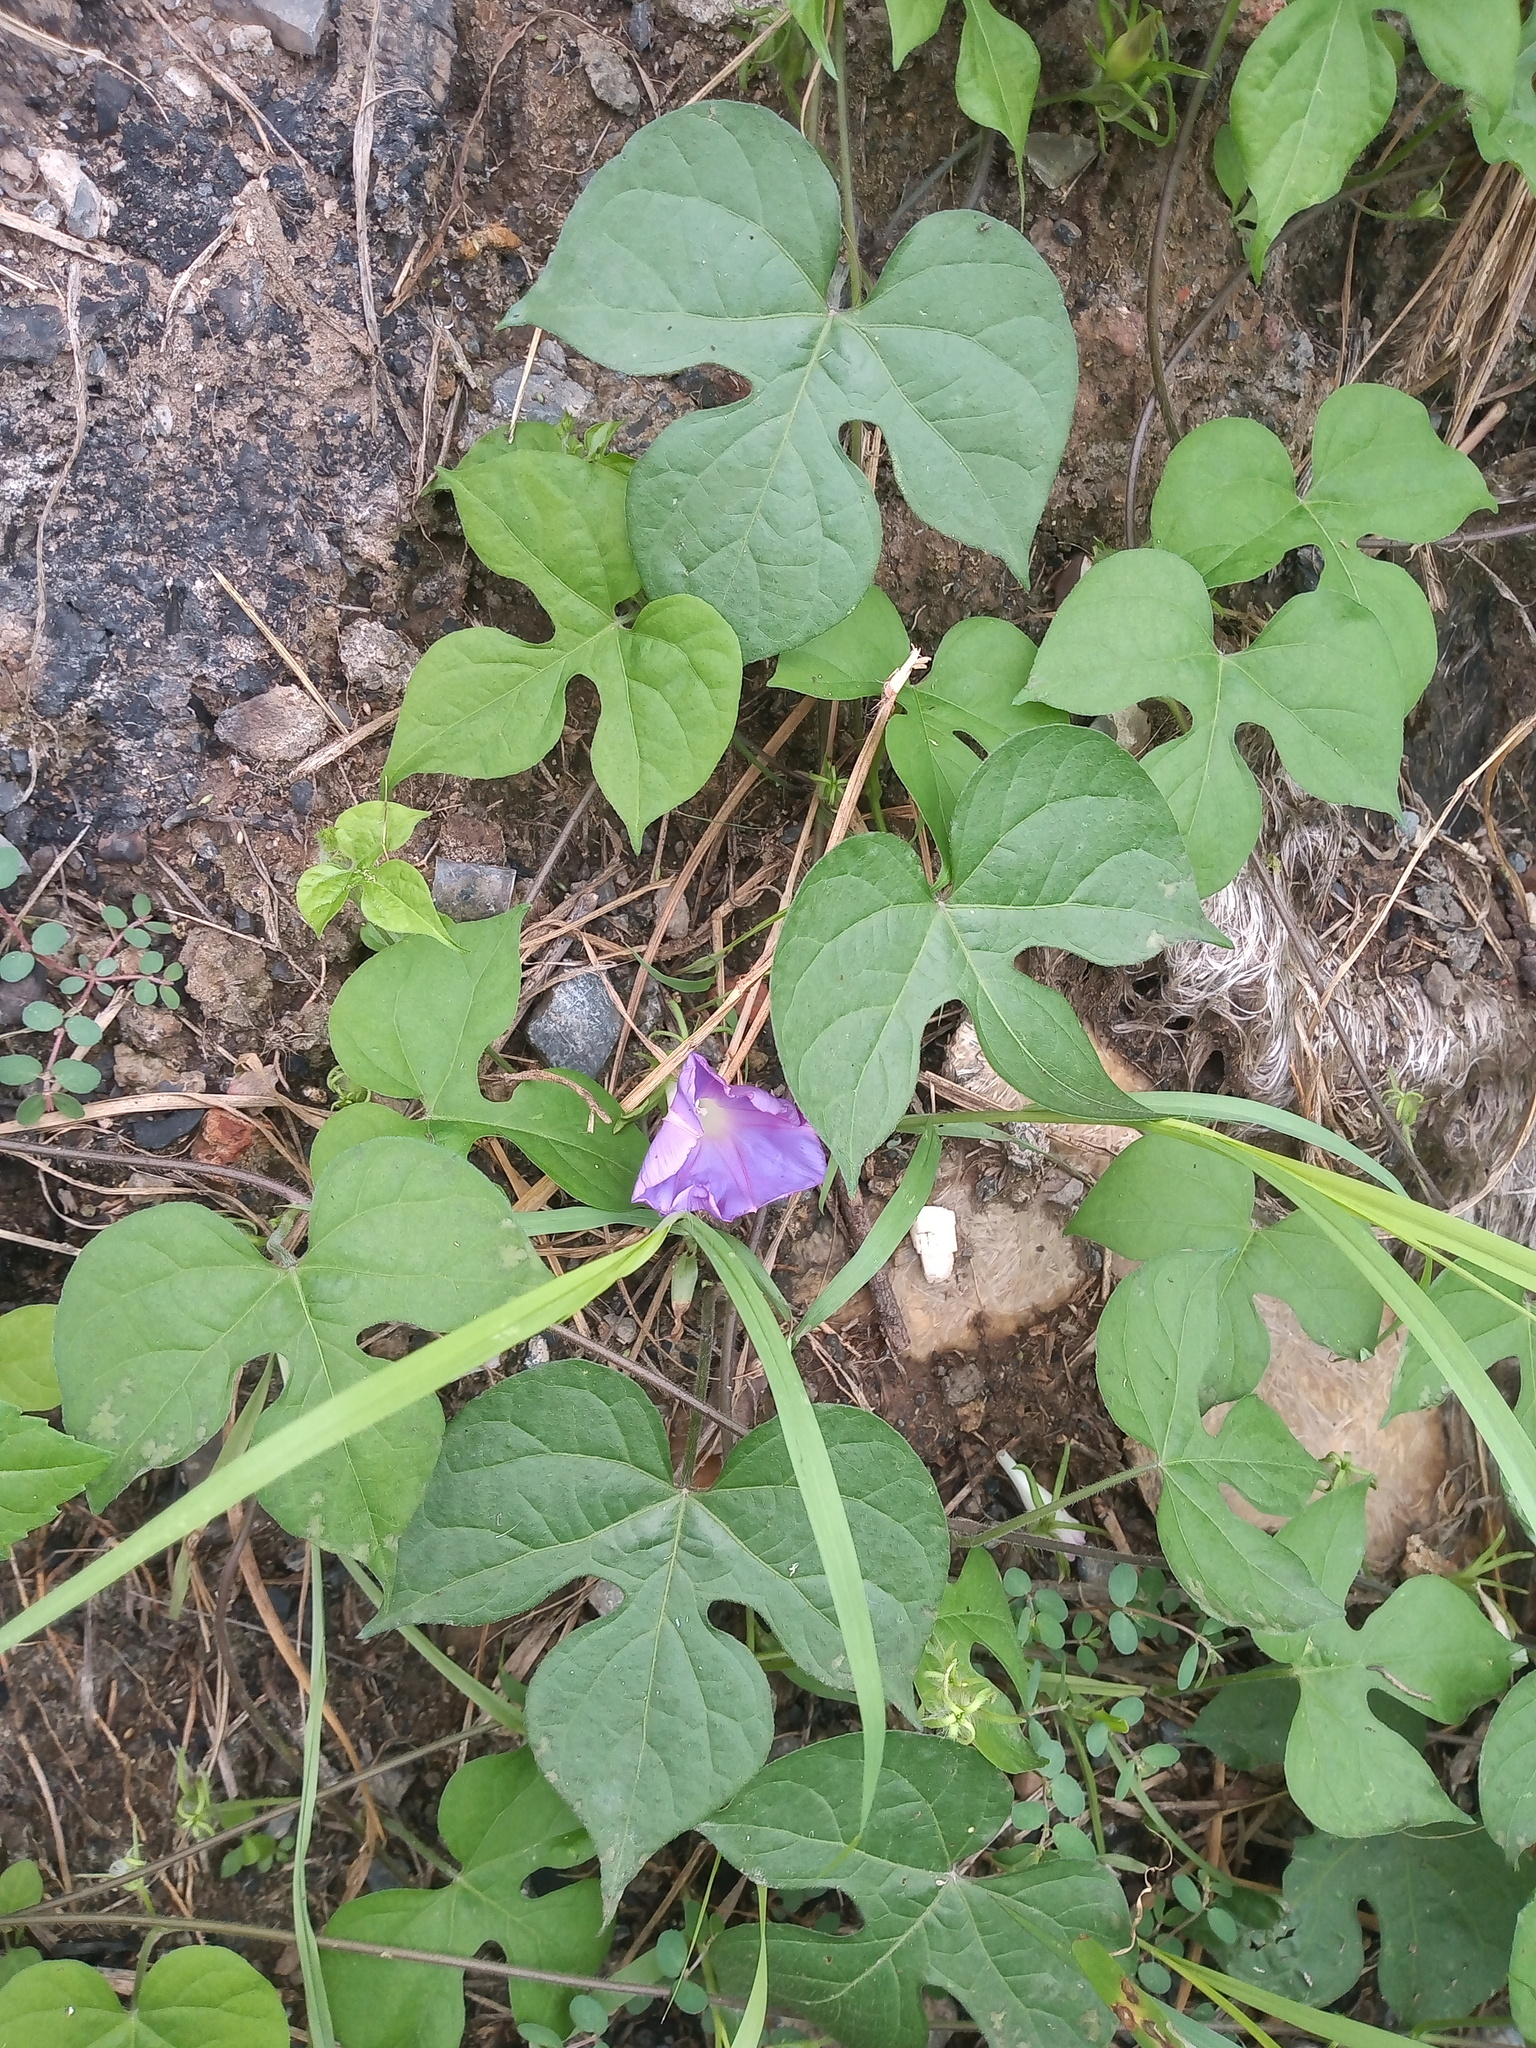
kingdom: Plantae
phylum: Tracheophyta
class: Magnoliopsida
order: Solanales
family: Convolvulaceae
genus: Ipomoea
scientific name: Ipomoea hederacea
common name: Ivy-leaved morning-glory
